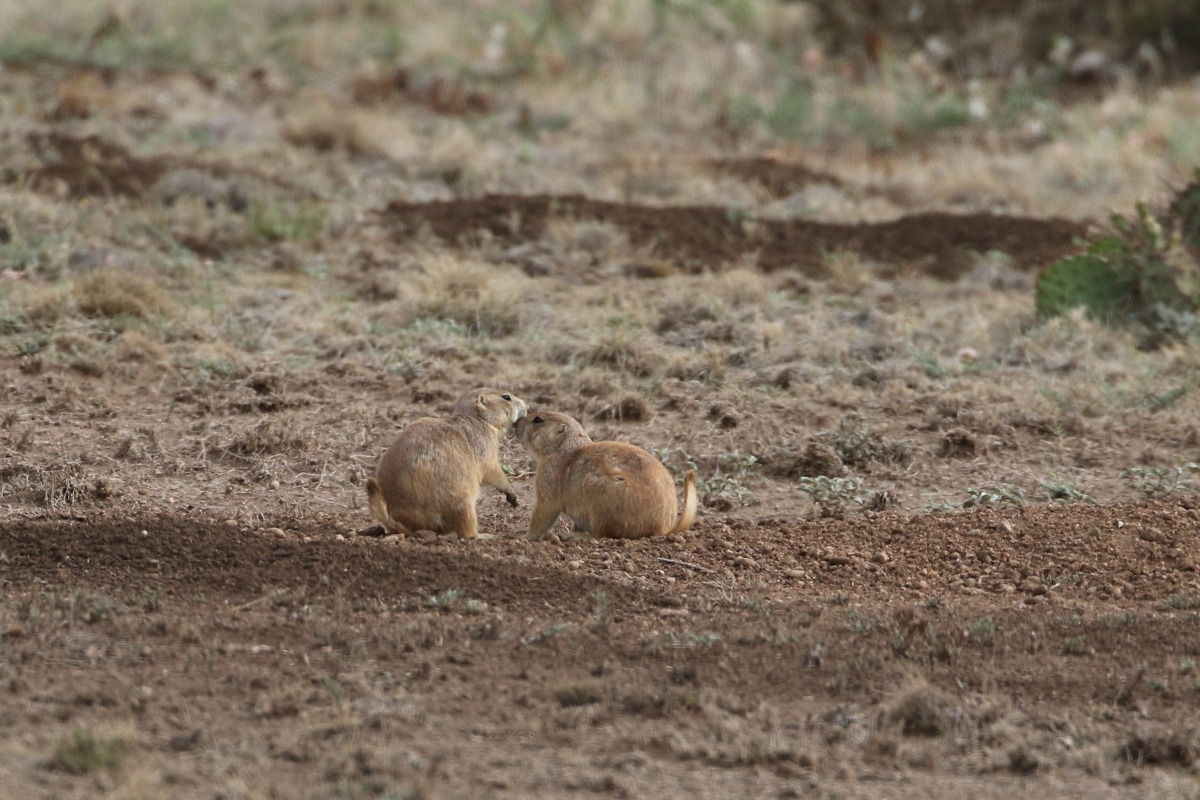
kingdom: Animalia
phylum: Chordata
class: Mammalia
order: Rodentia
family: Sciuridae
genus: Cynomys
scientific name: Cynomys ludovicianus
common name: Black-tailed prairie dog
